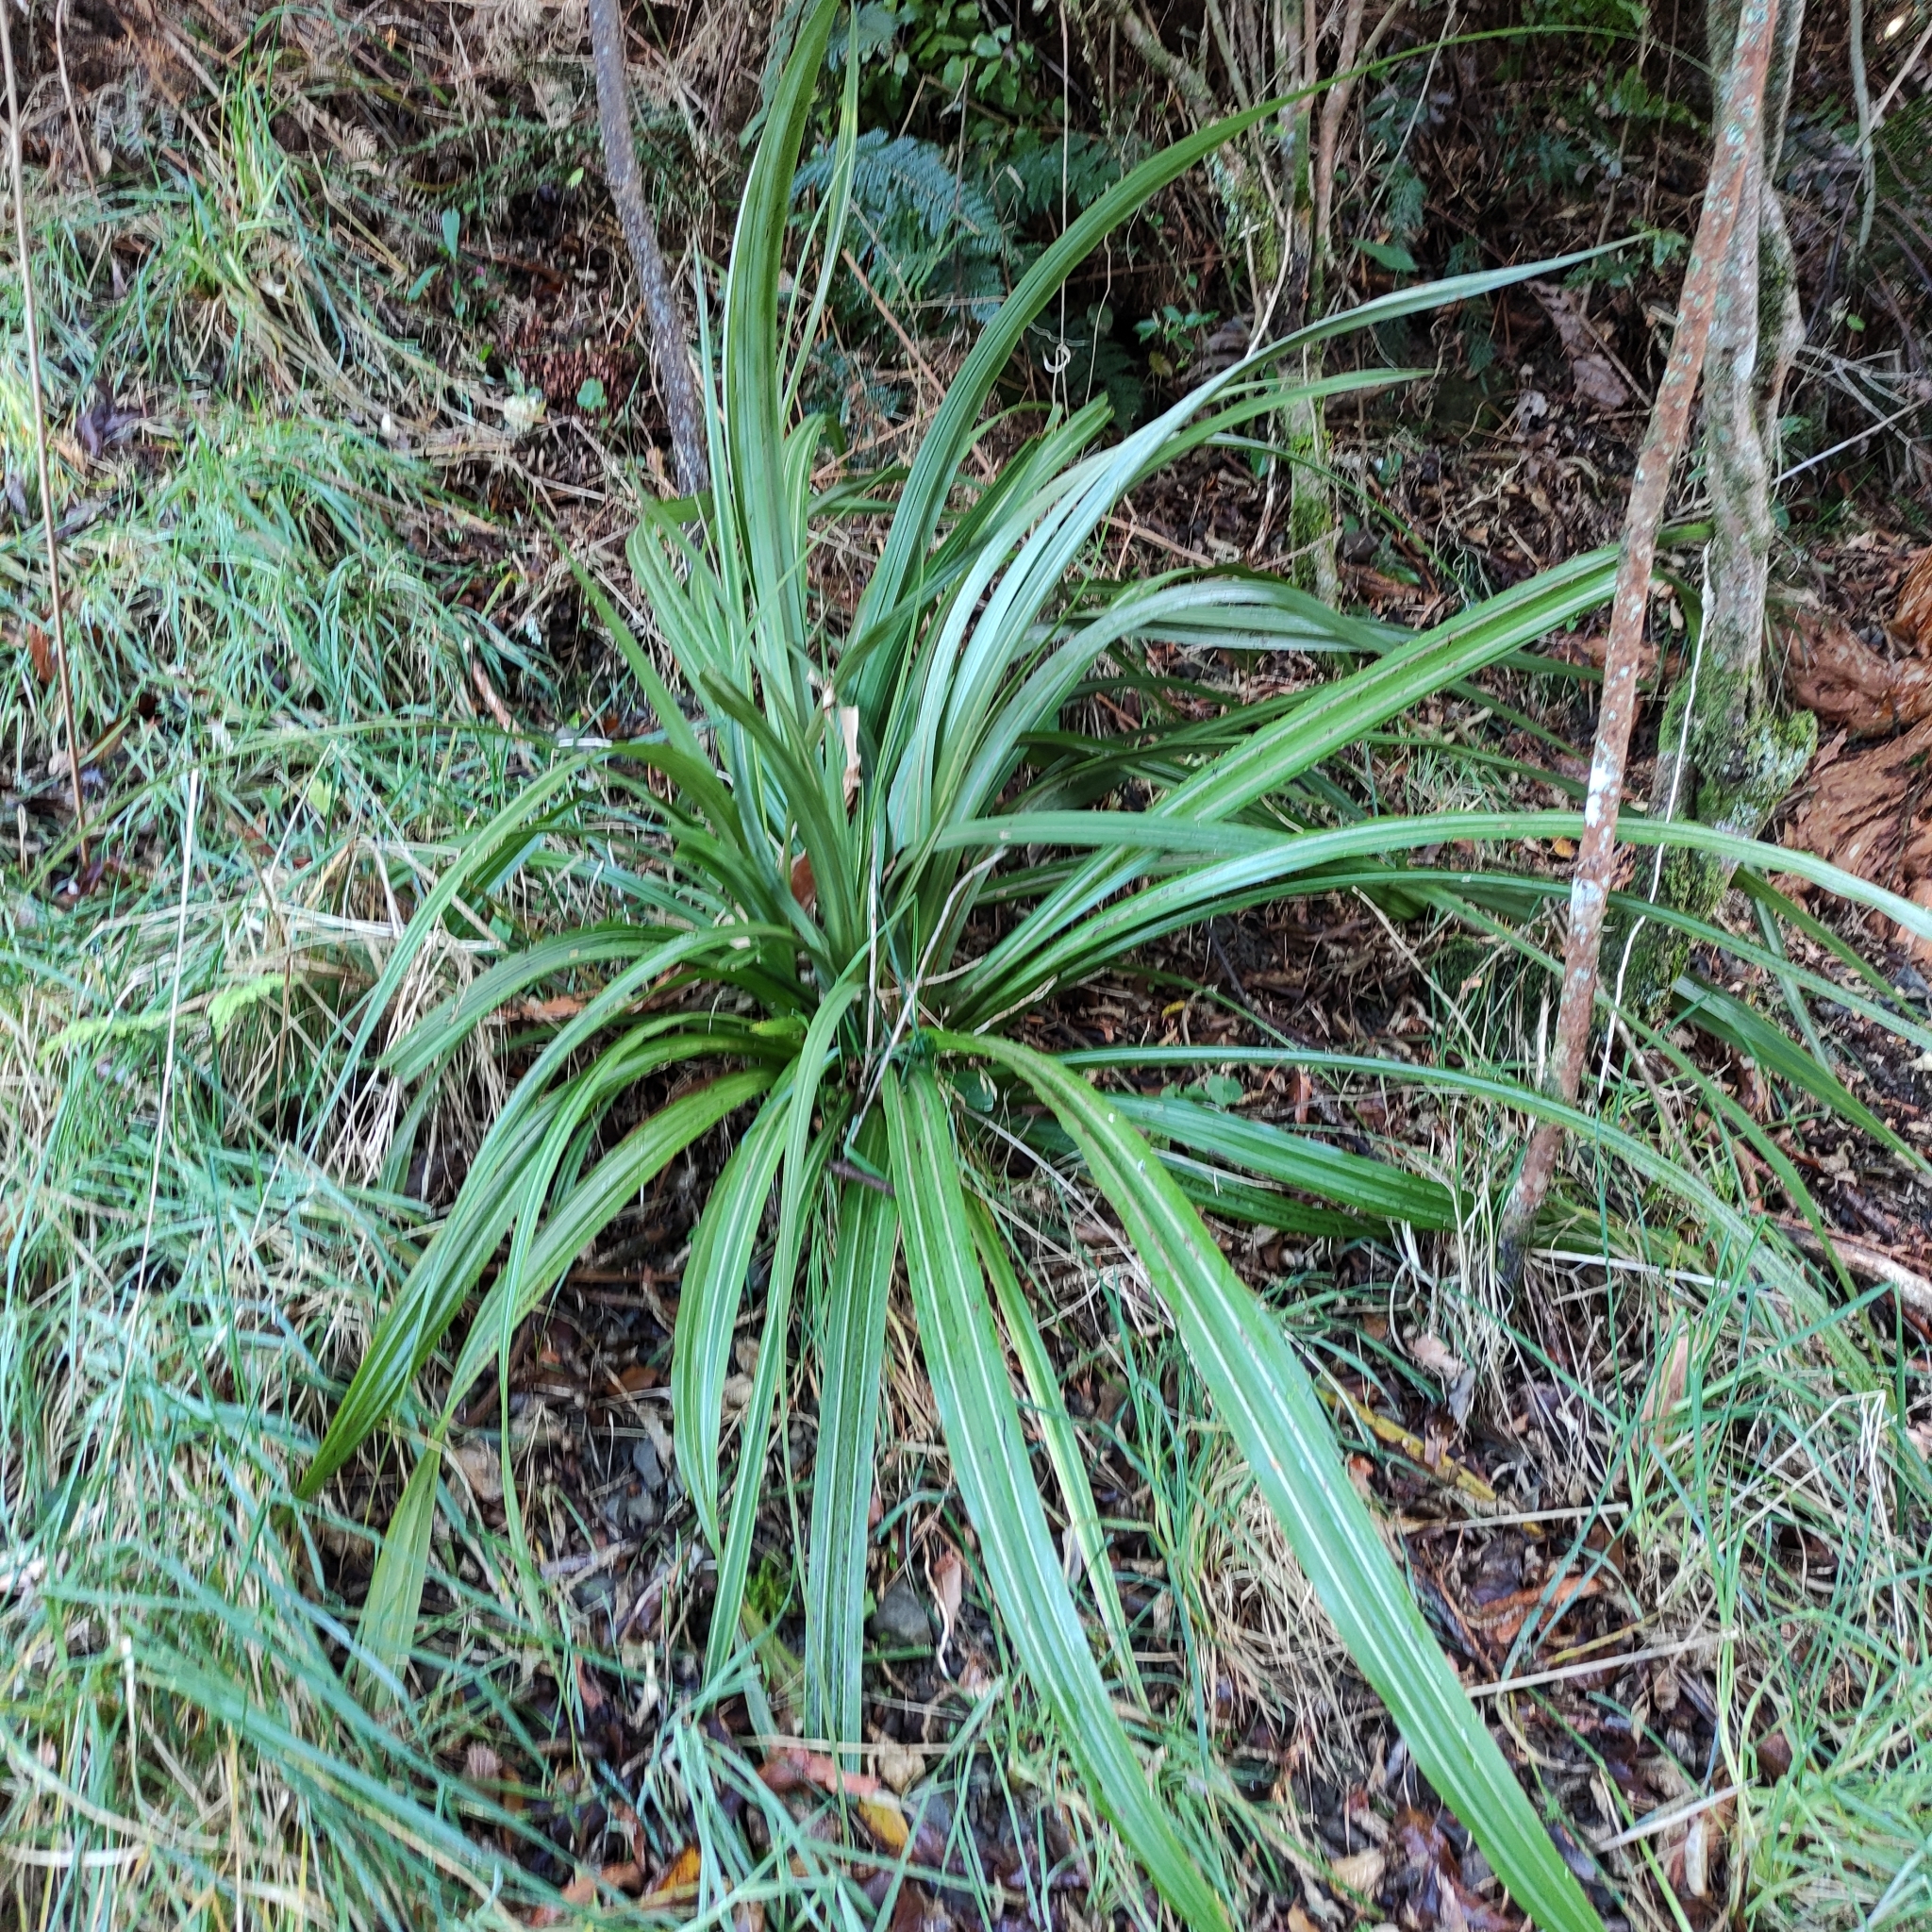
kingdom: Plantae
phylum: Tracheophyta
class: Liliopsida
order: Asparagales
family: Asteliaceae
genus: Astelia
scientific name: Astelia fragrans
